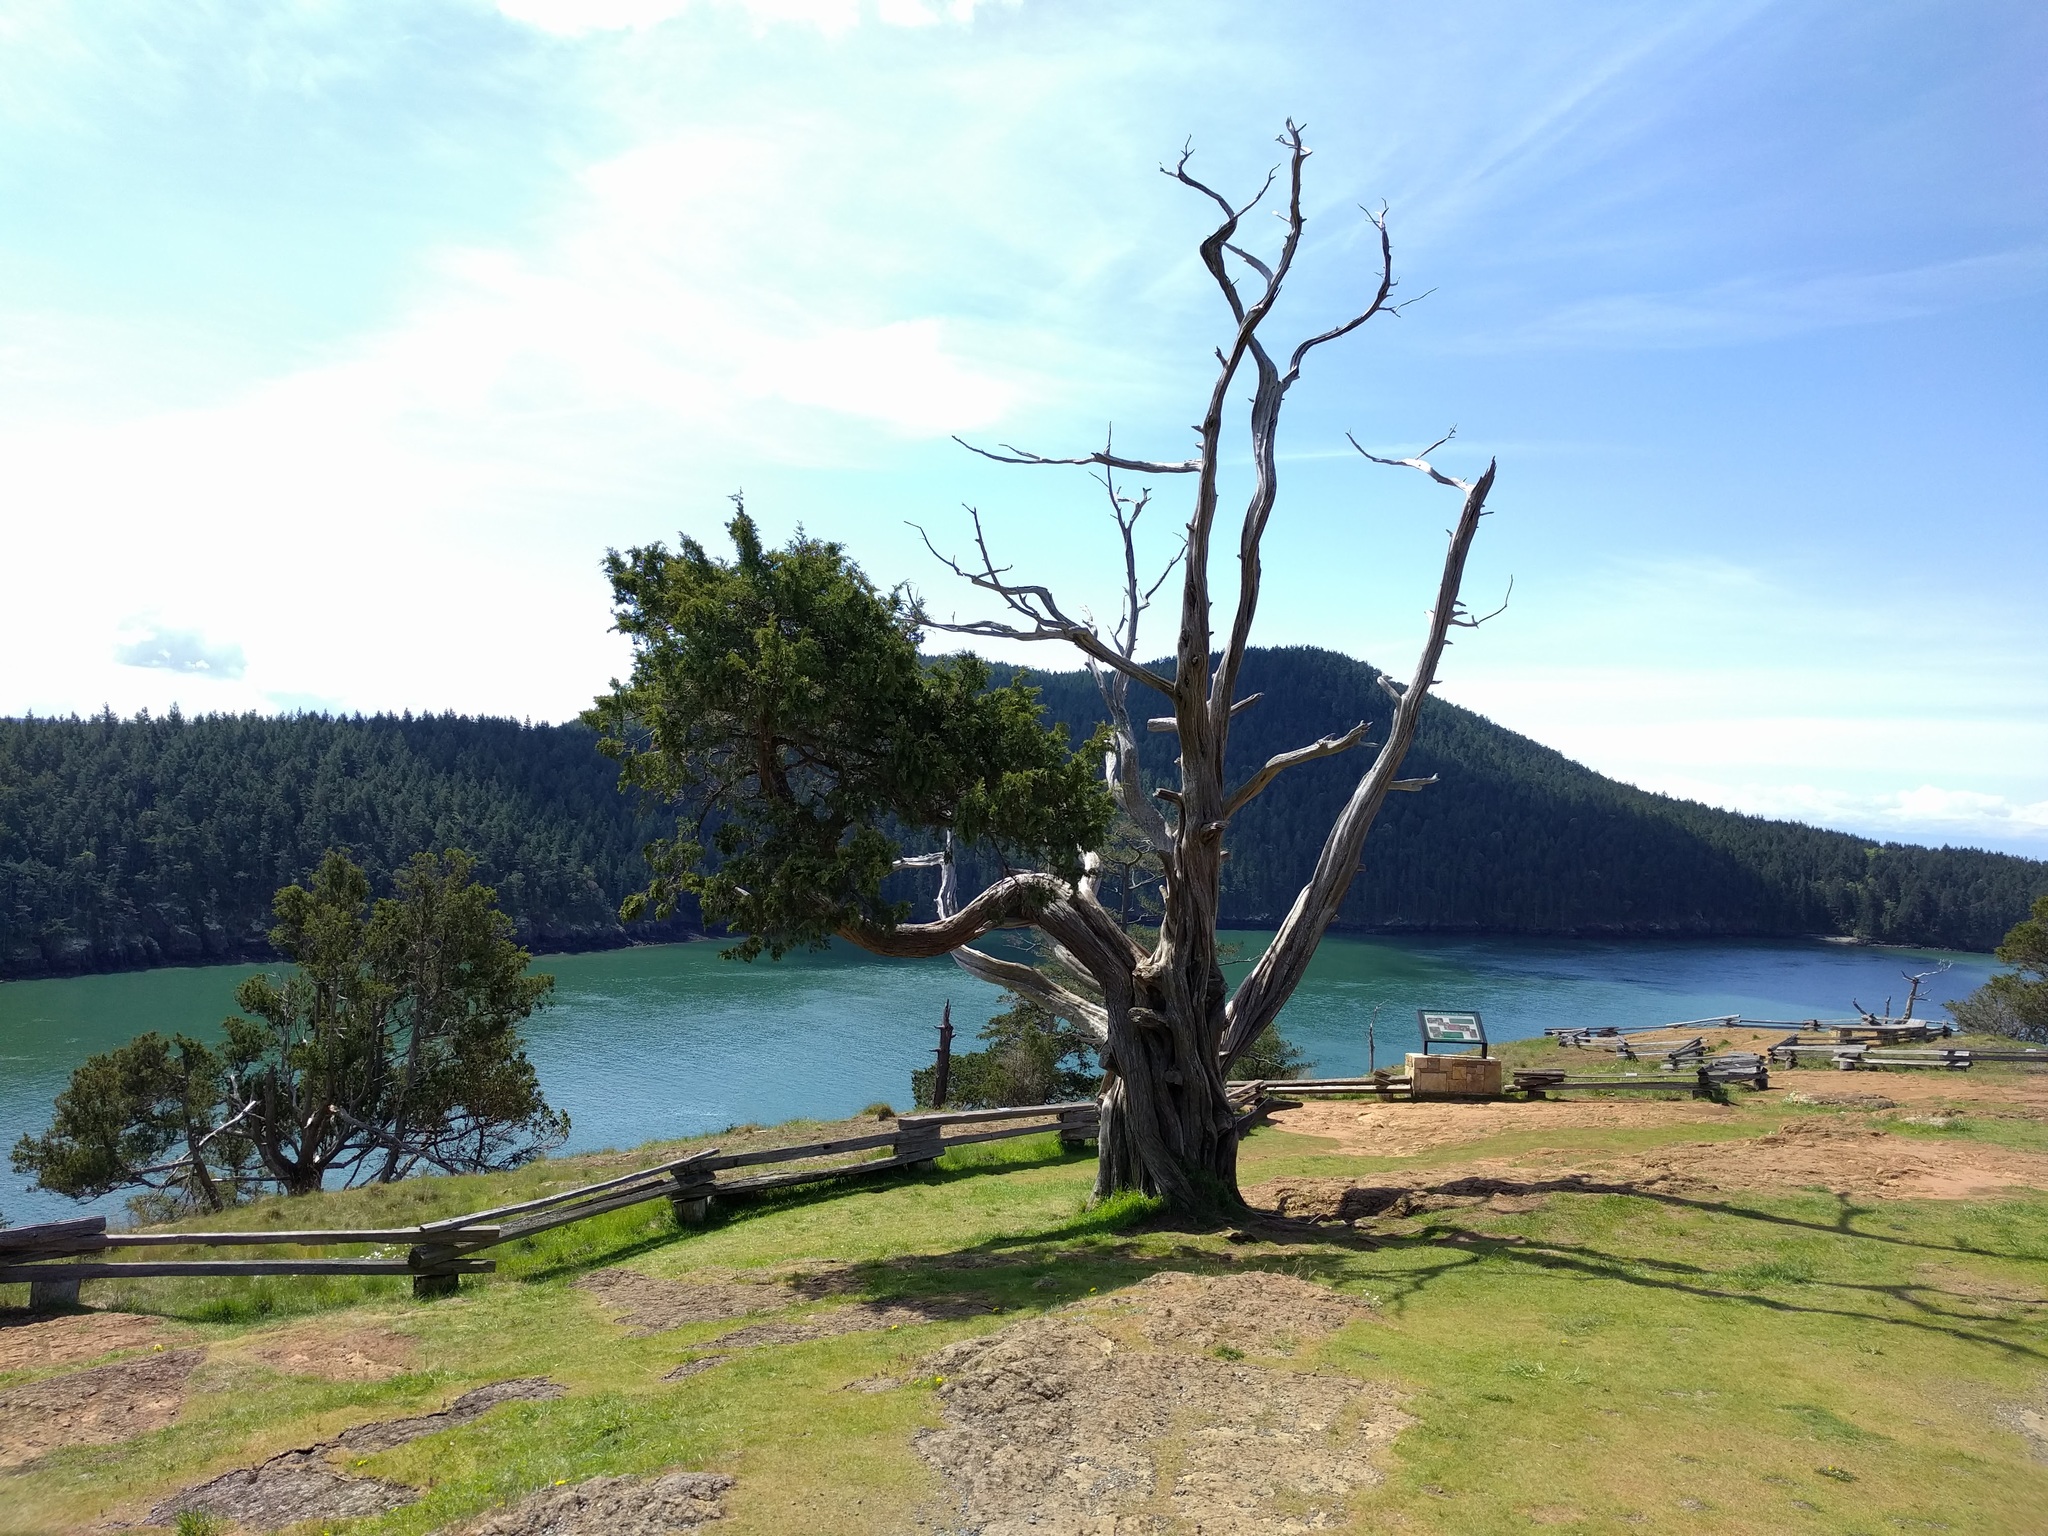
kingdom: Plantae
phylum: Tracheophyta
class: Pinopsida
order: Pinales
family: Cupressaceae
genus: Juniperus
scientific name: Juniperus scopulorum
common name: Rocky mountain juniper
